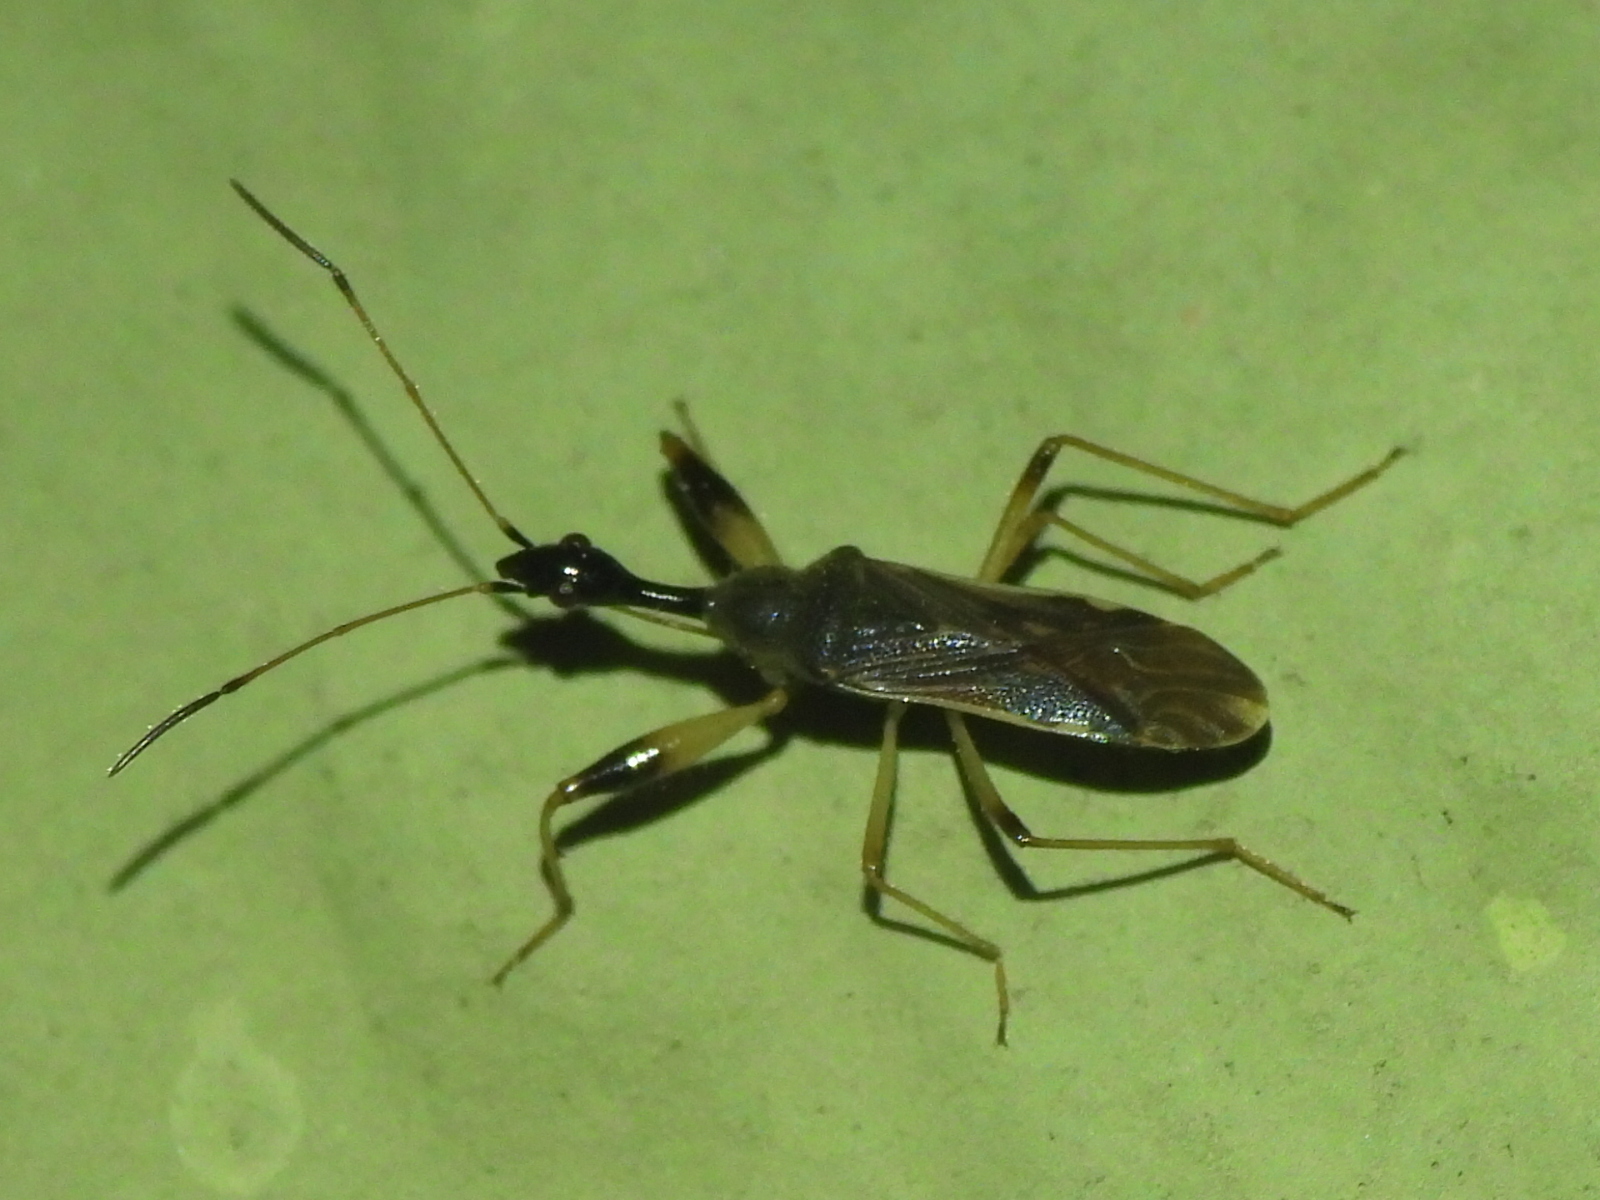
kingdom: Animalia
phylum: Arthropoda
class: Insecta
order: Hemiptera
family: Rhyparochromidae
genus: Myodocha
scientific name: Myodocha serripes
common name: Long-necked seed bug
